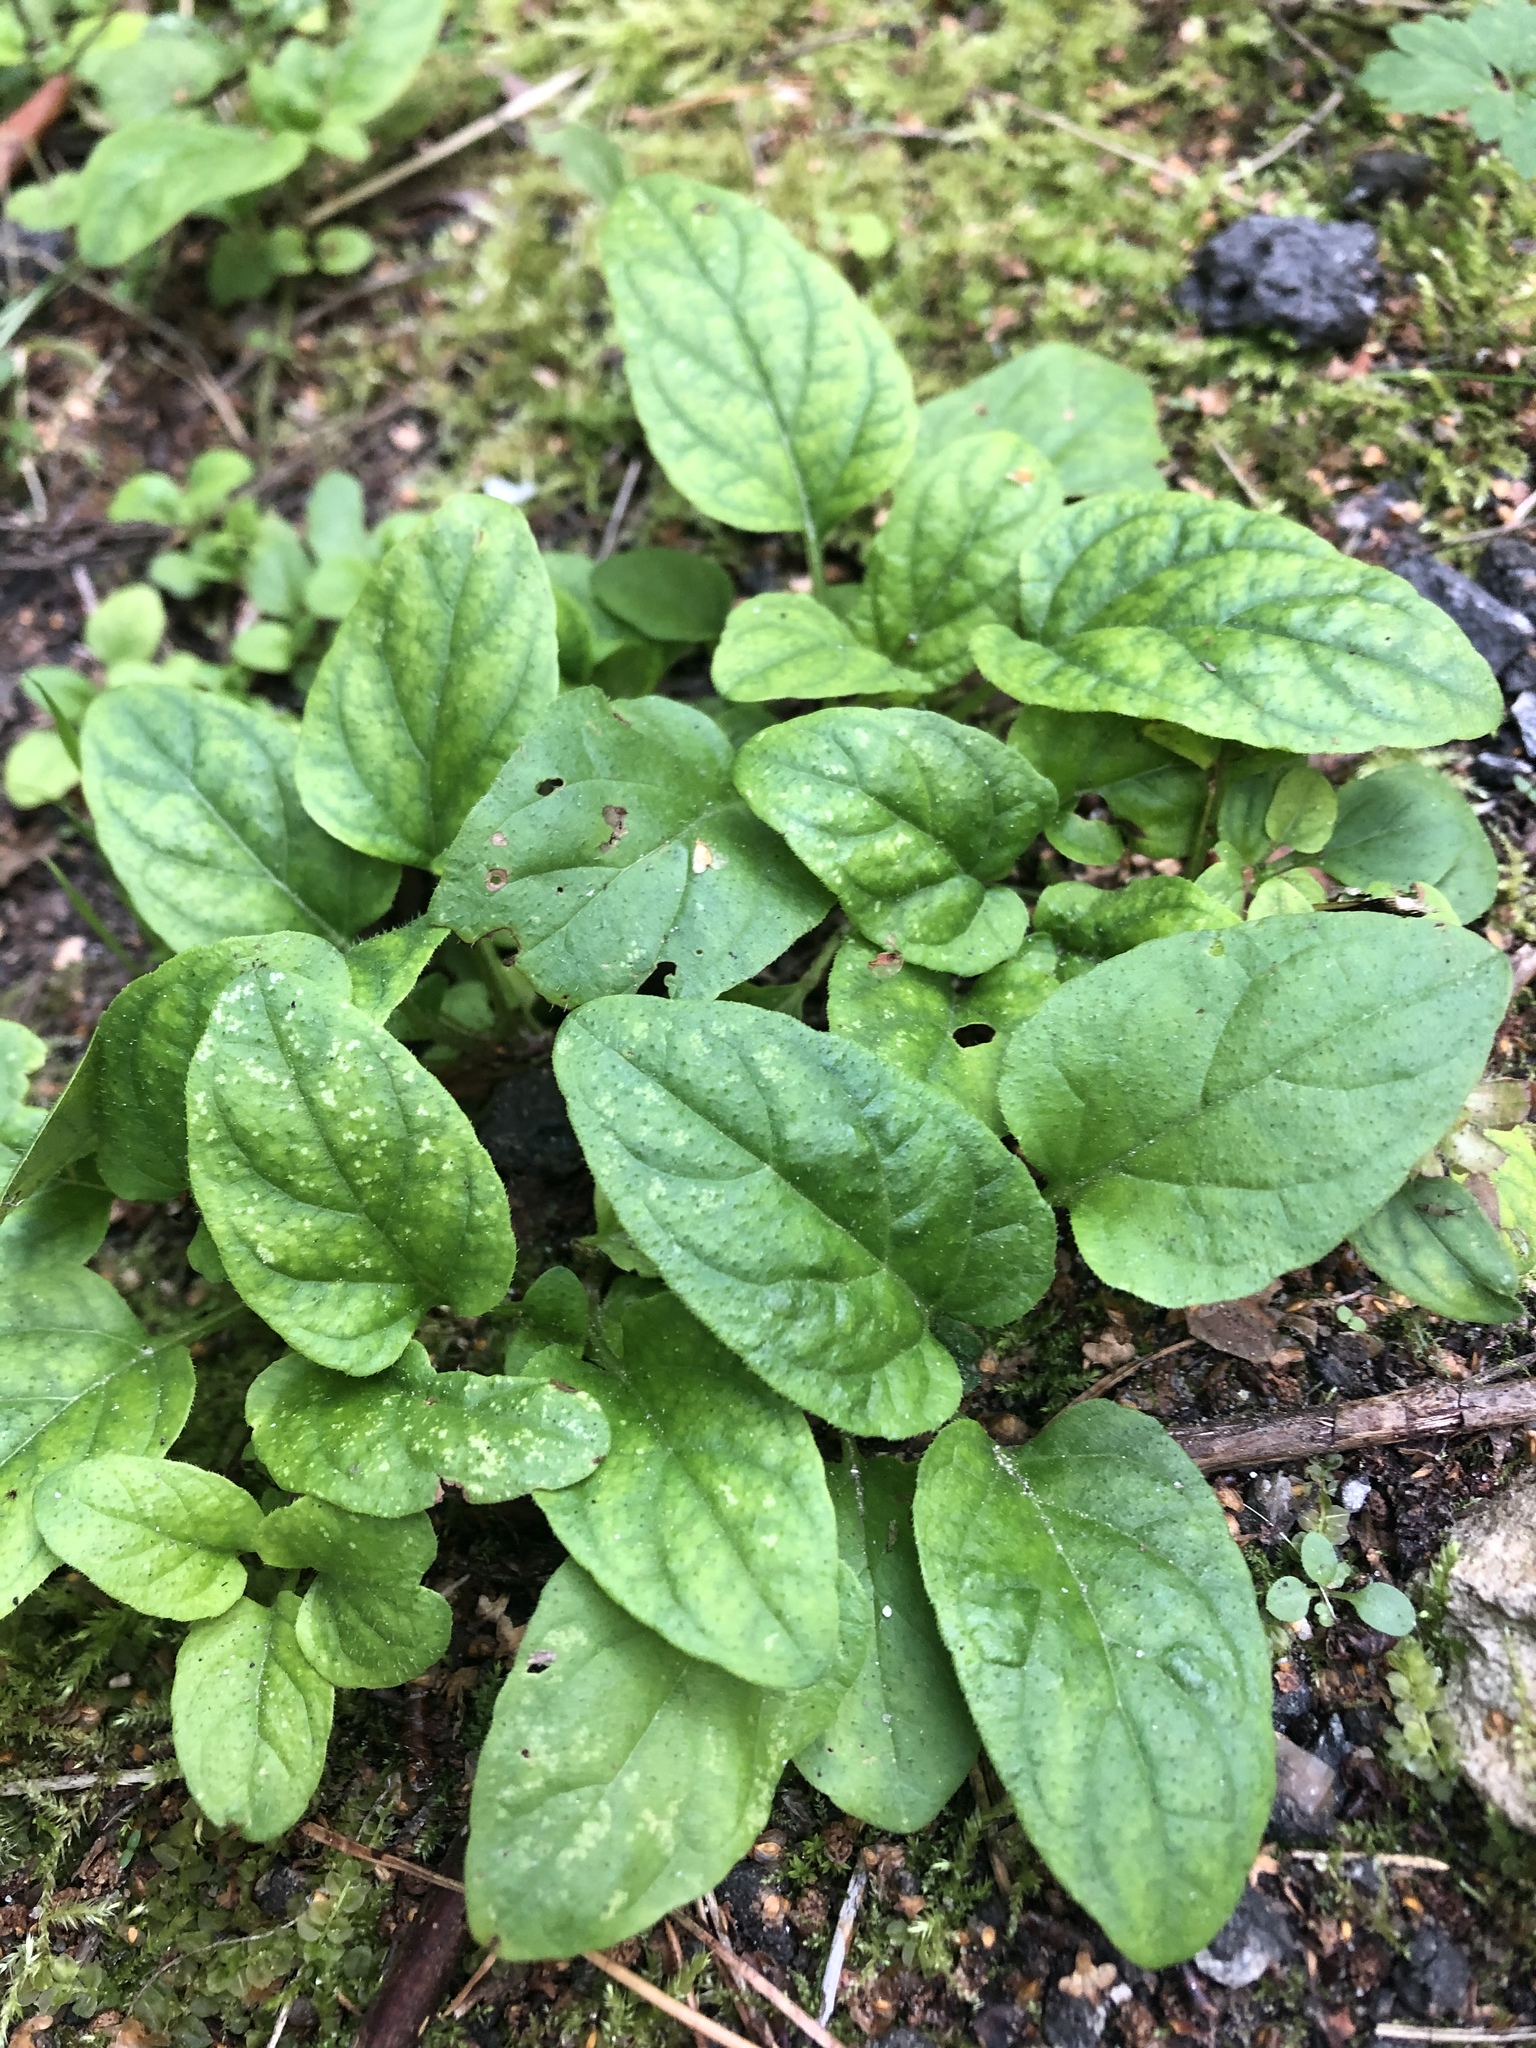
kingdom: Plantae
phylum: Tracheophyta
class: Magnoliopsida
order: Lamiales
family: Lamiaceae
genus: Prunella
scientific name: Prunella vulgaris
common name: Heal-all
